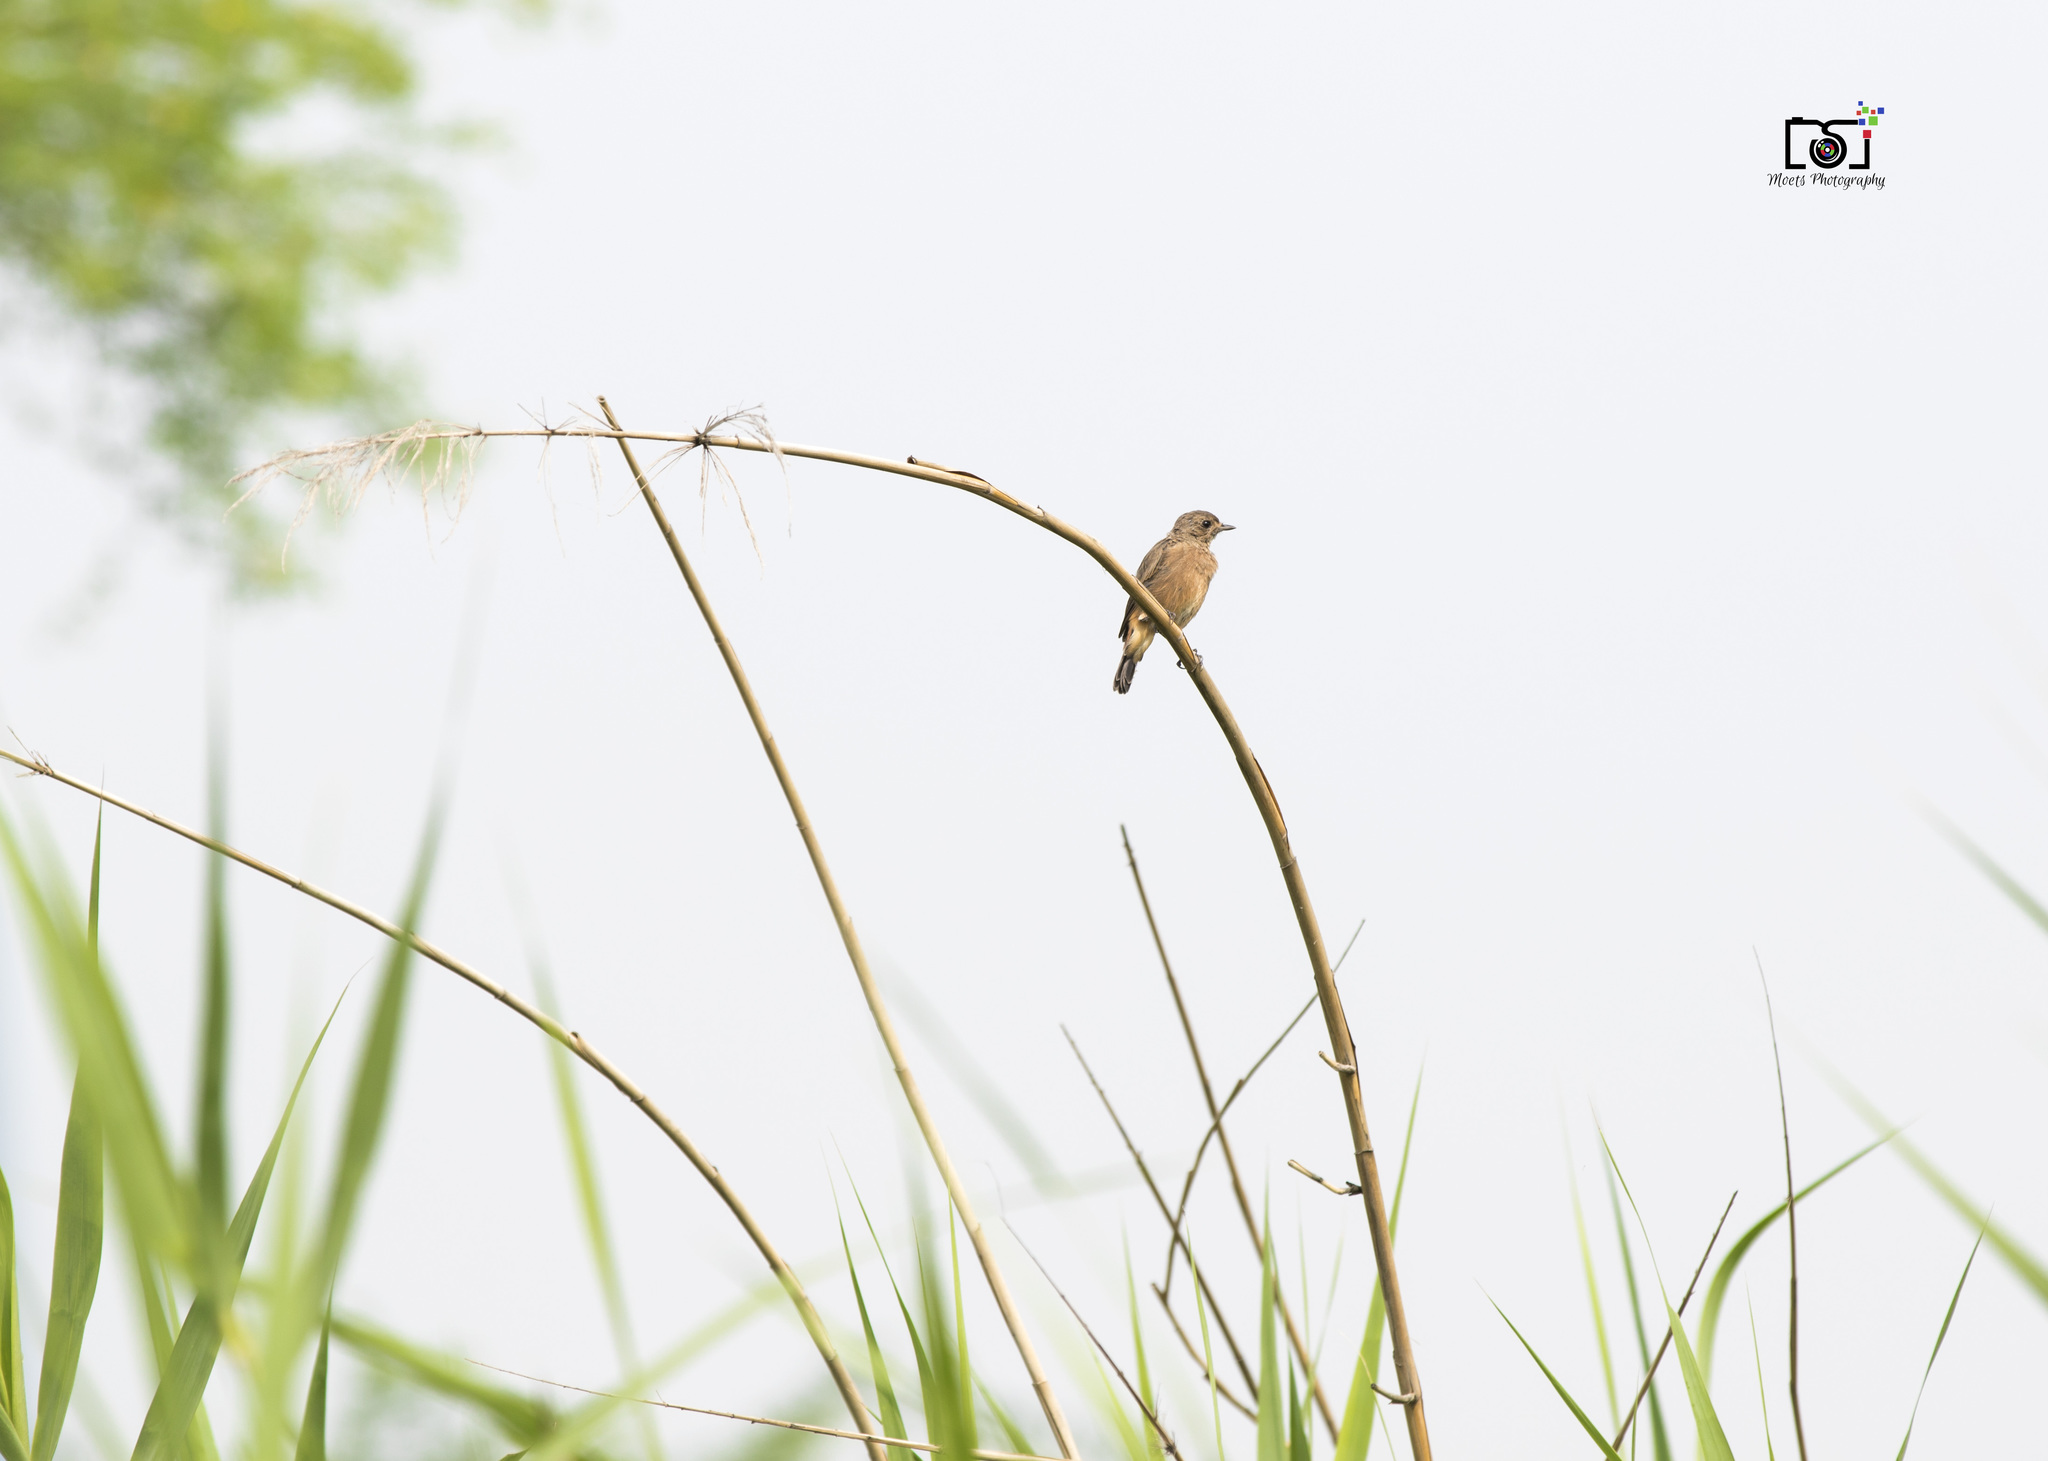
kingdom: Animalia
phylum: Chordata
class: Aves
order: Passeriformes
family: Muscicapidae
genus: Saxicola
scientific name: Saxicola caprata
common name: Pied bush chat
